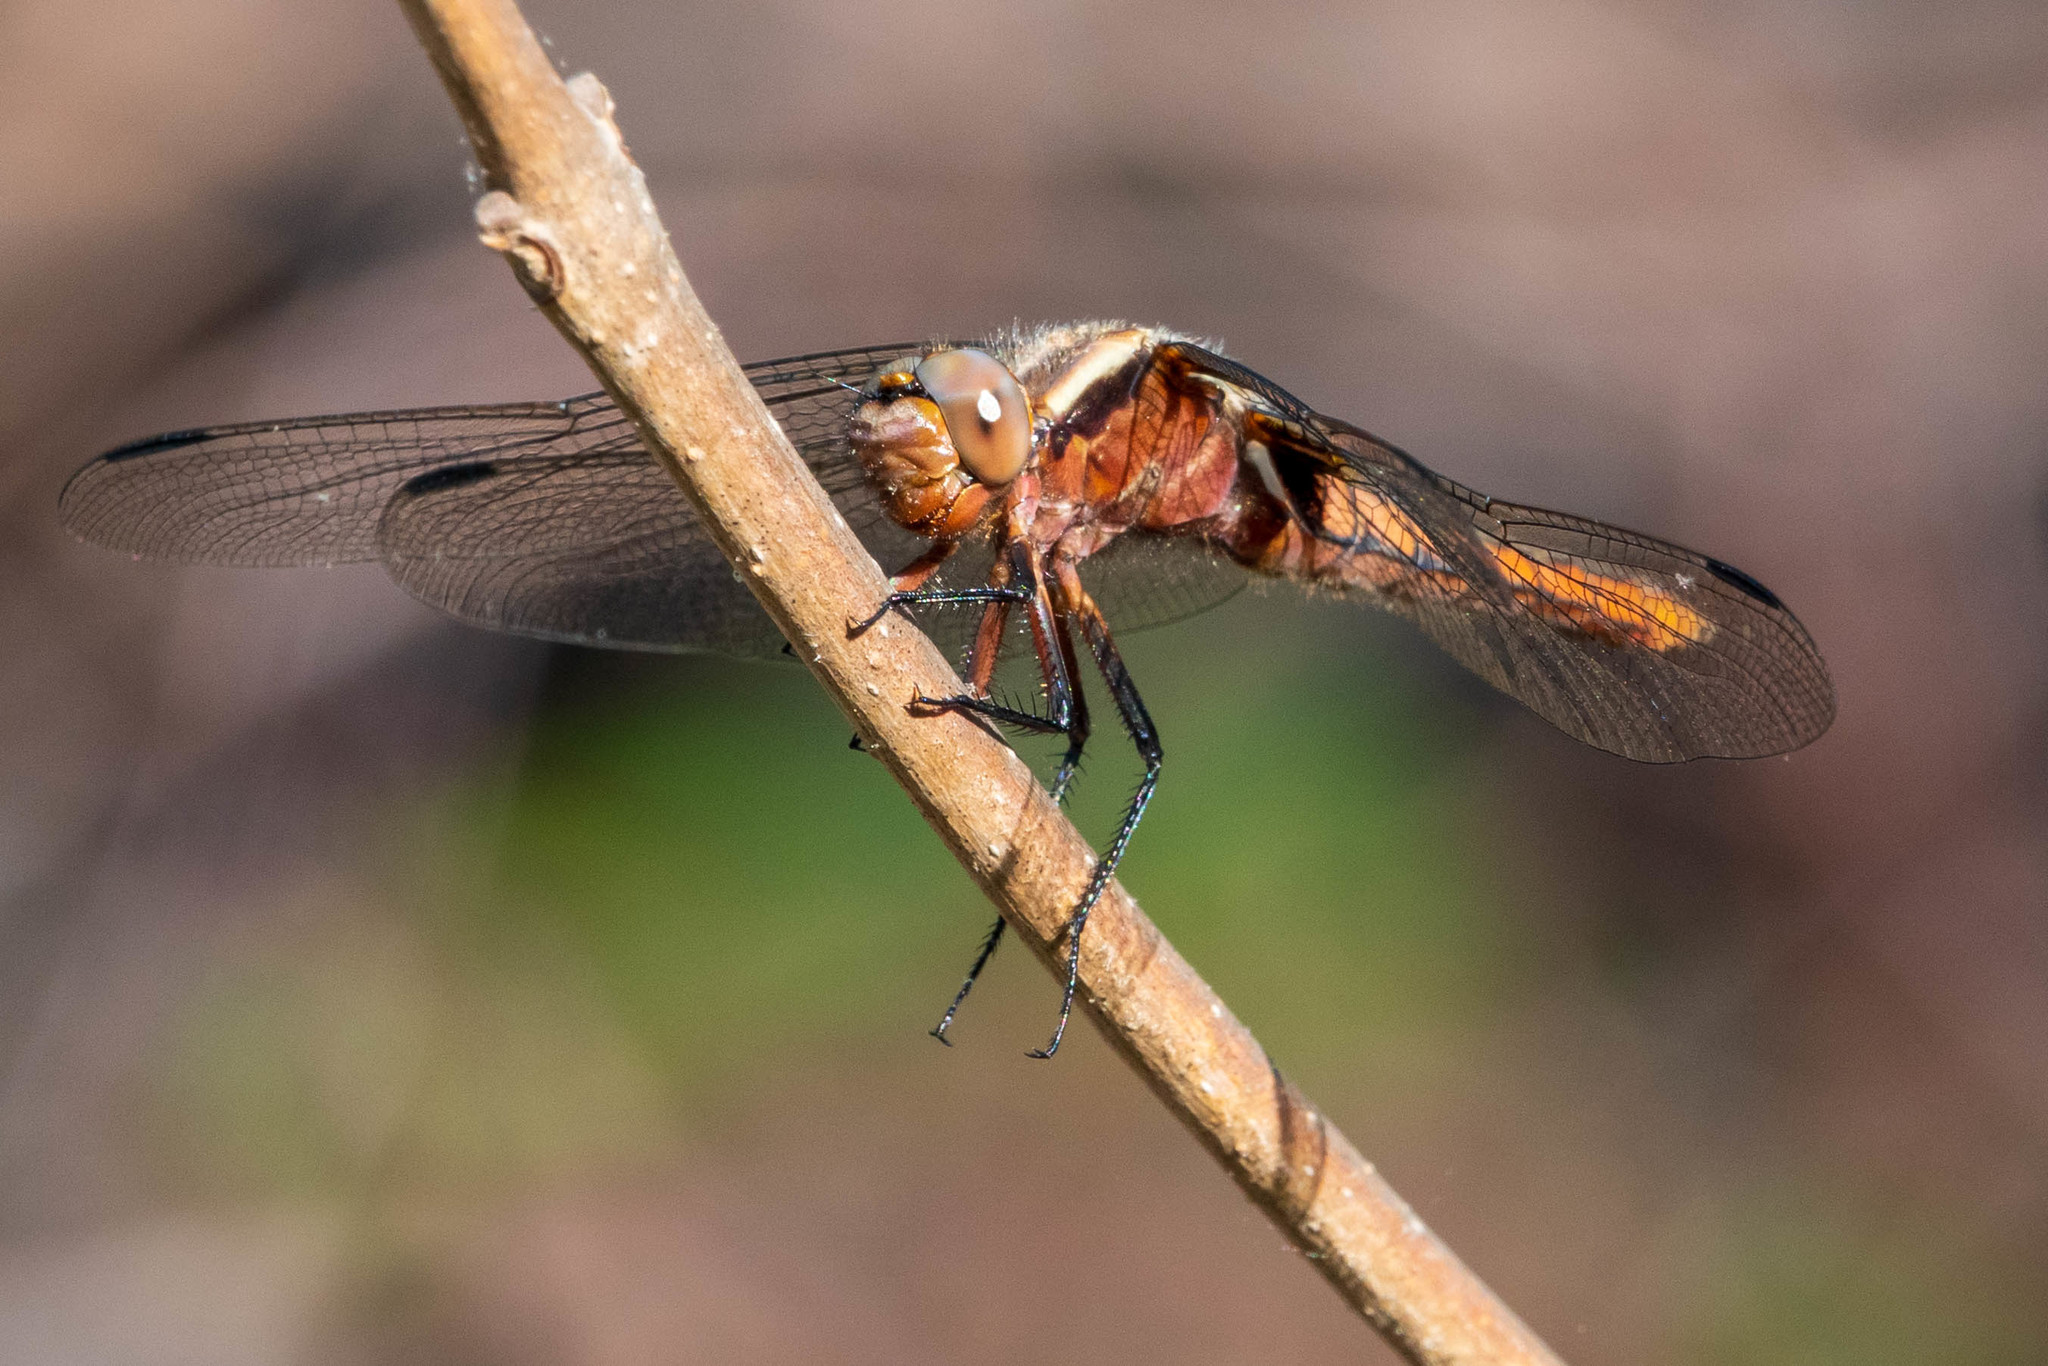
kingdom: Animalia
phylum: Arthropoda
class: Insecta
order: Odonata
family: Libellulidae
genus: Ladona
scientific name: Ladona julia
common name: Chalk-fronted corporal
